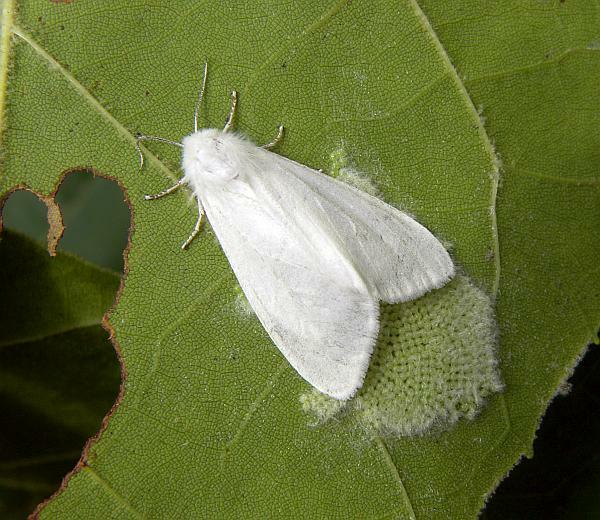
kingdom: Animalia
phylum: Arthropoda
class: Insecta
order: Lepidoptera
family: Erebidae
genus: Hyphantria
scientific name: Hyphantria cunea
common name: American white moth
